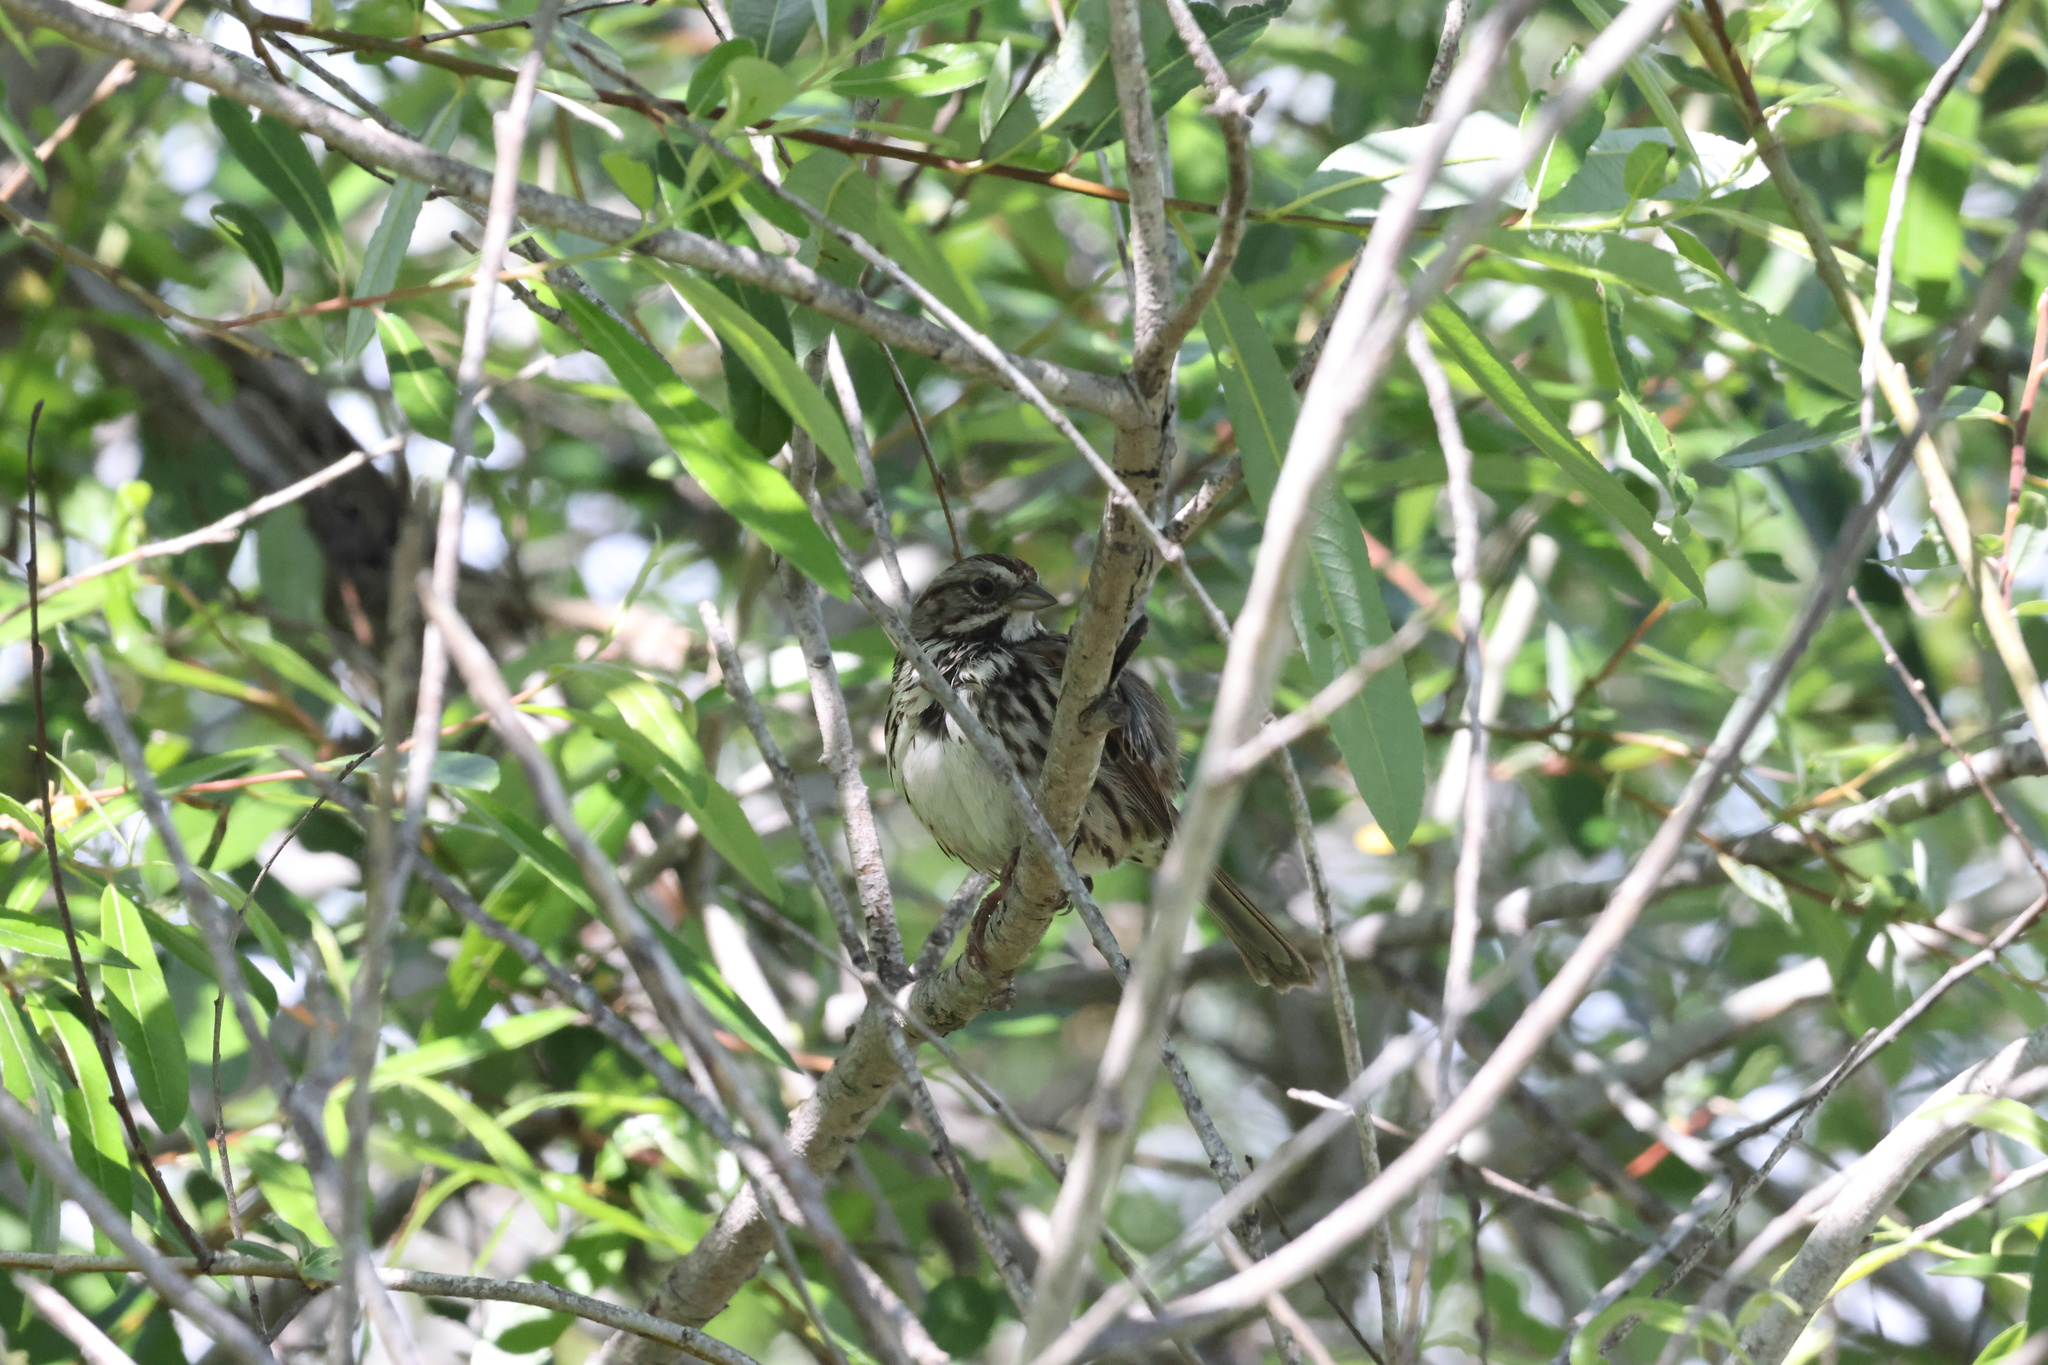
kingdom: Animalia
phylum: Chordata
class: Aves
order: Passeriformes
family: Passerellidae
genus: Melospiza
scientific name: Melospiza melodia
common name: Song sparrow
